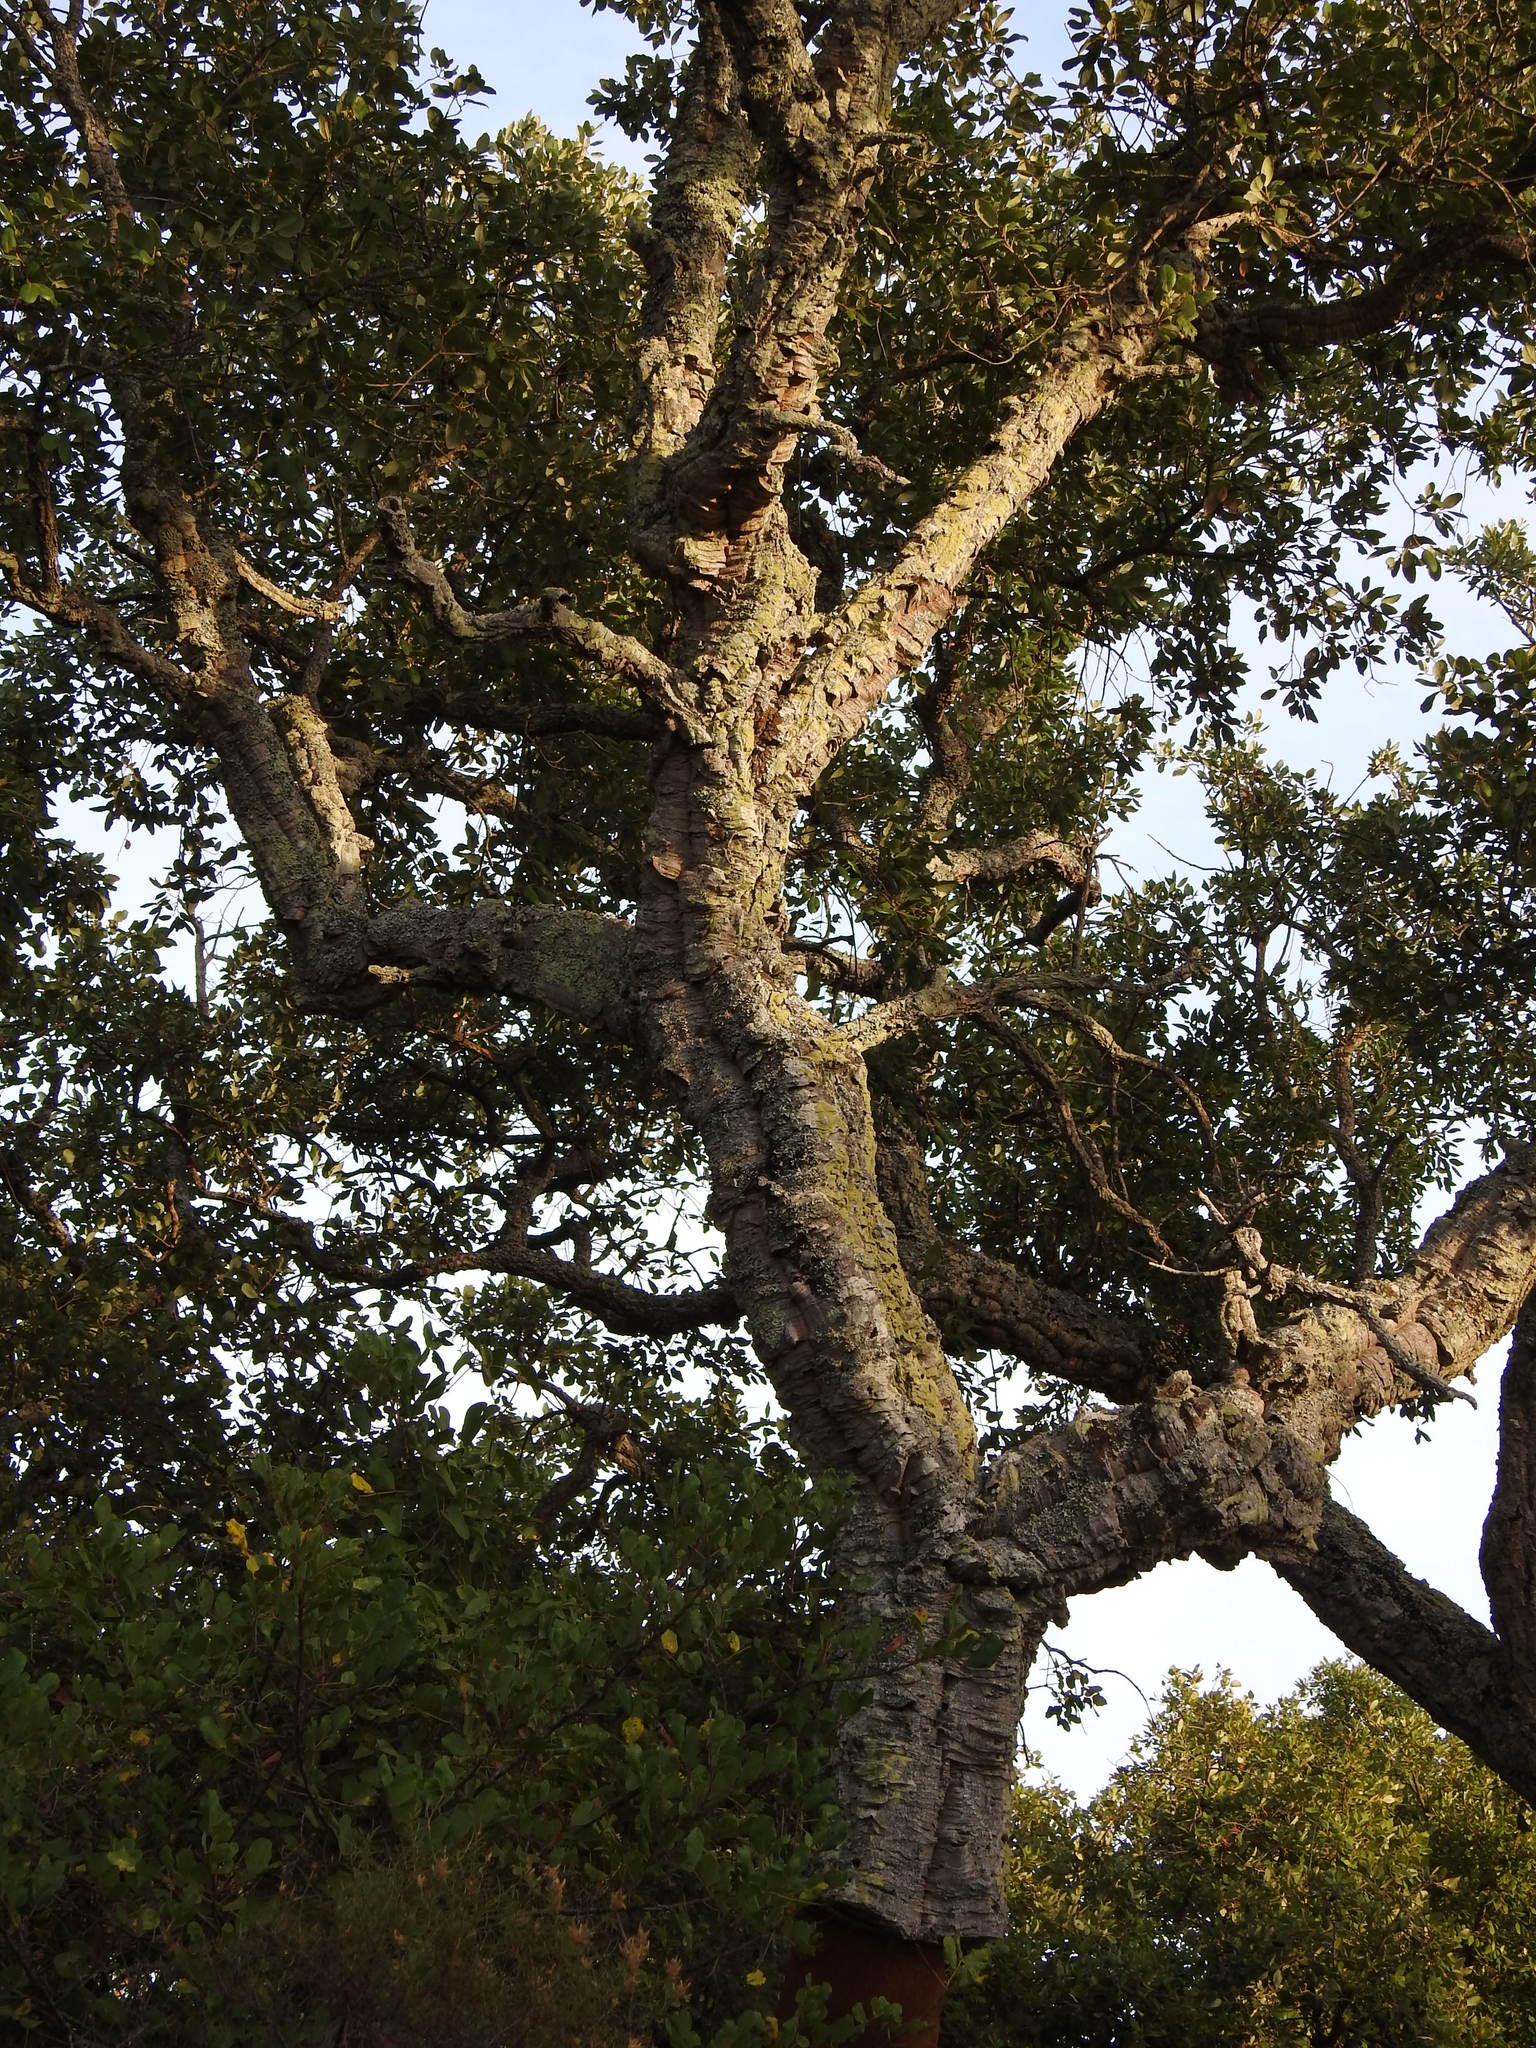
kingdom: Plantae
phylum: Tracheophyta
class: Magnoliopsida
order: Fagales
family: Fagaceae
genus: Quercus
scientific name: Quercus suber
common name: Cork oak
